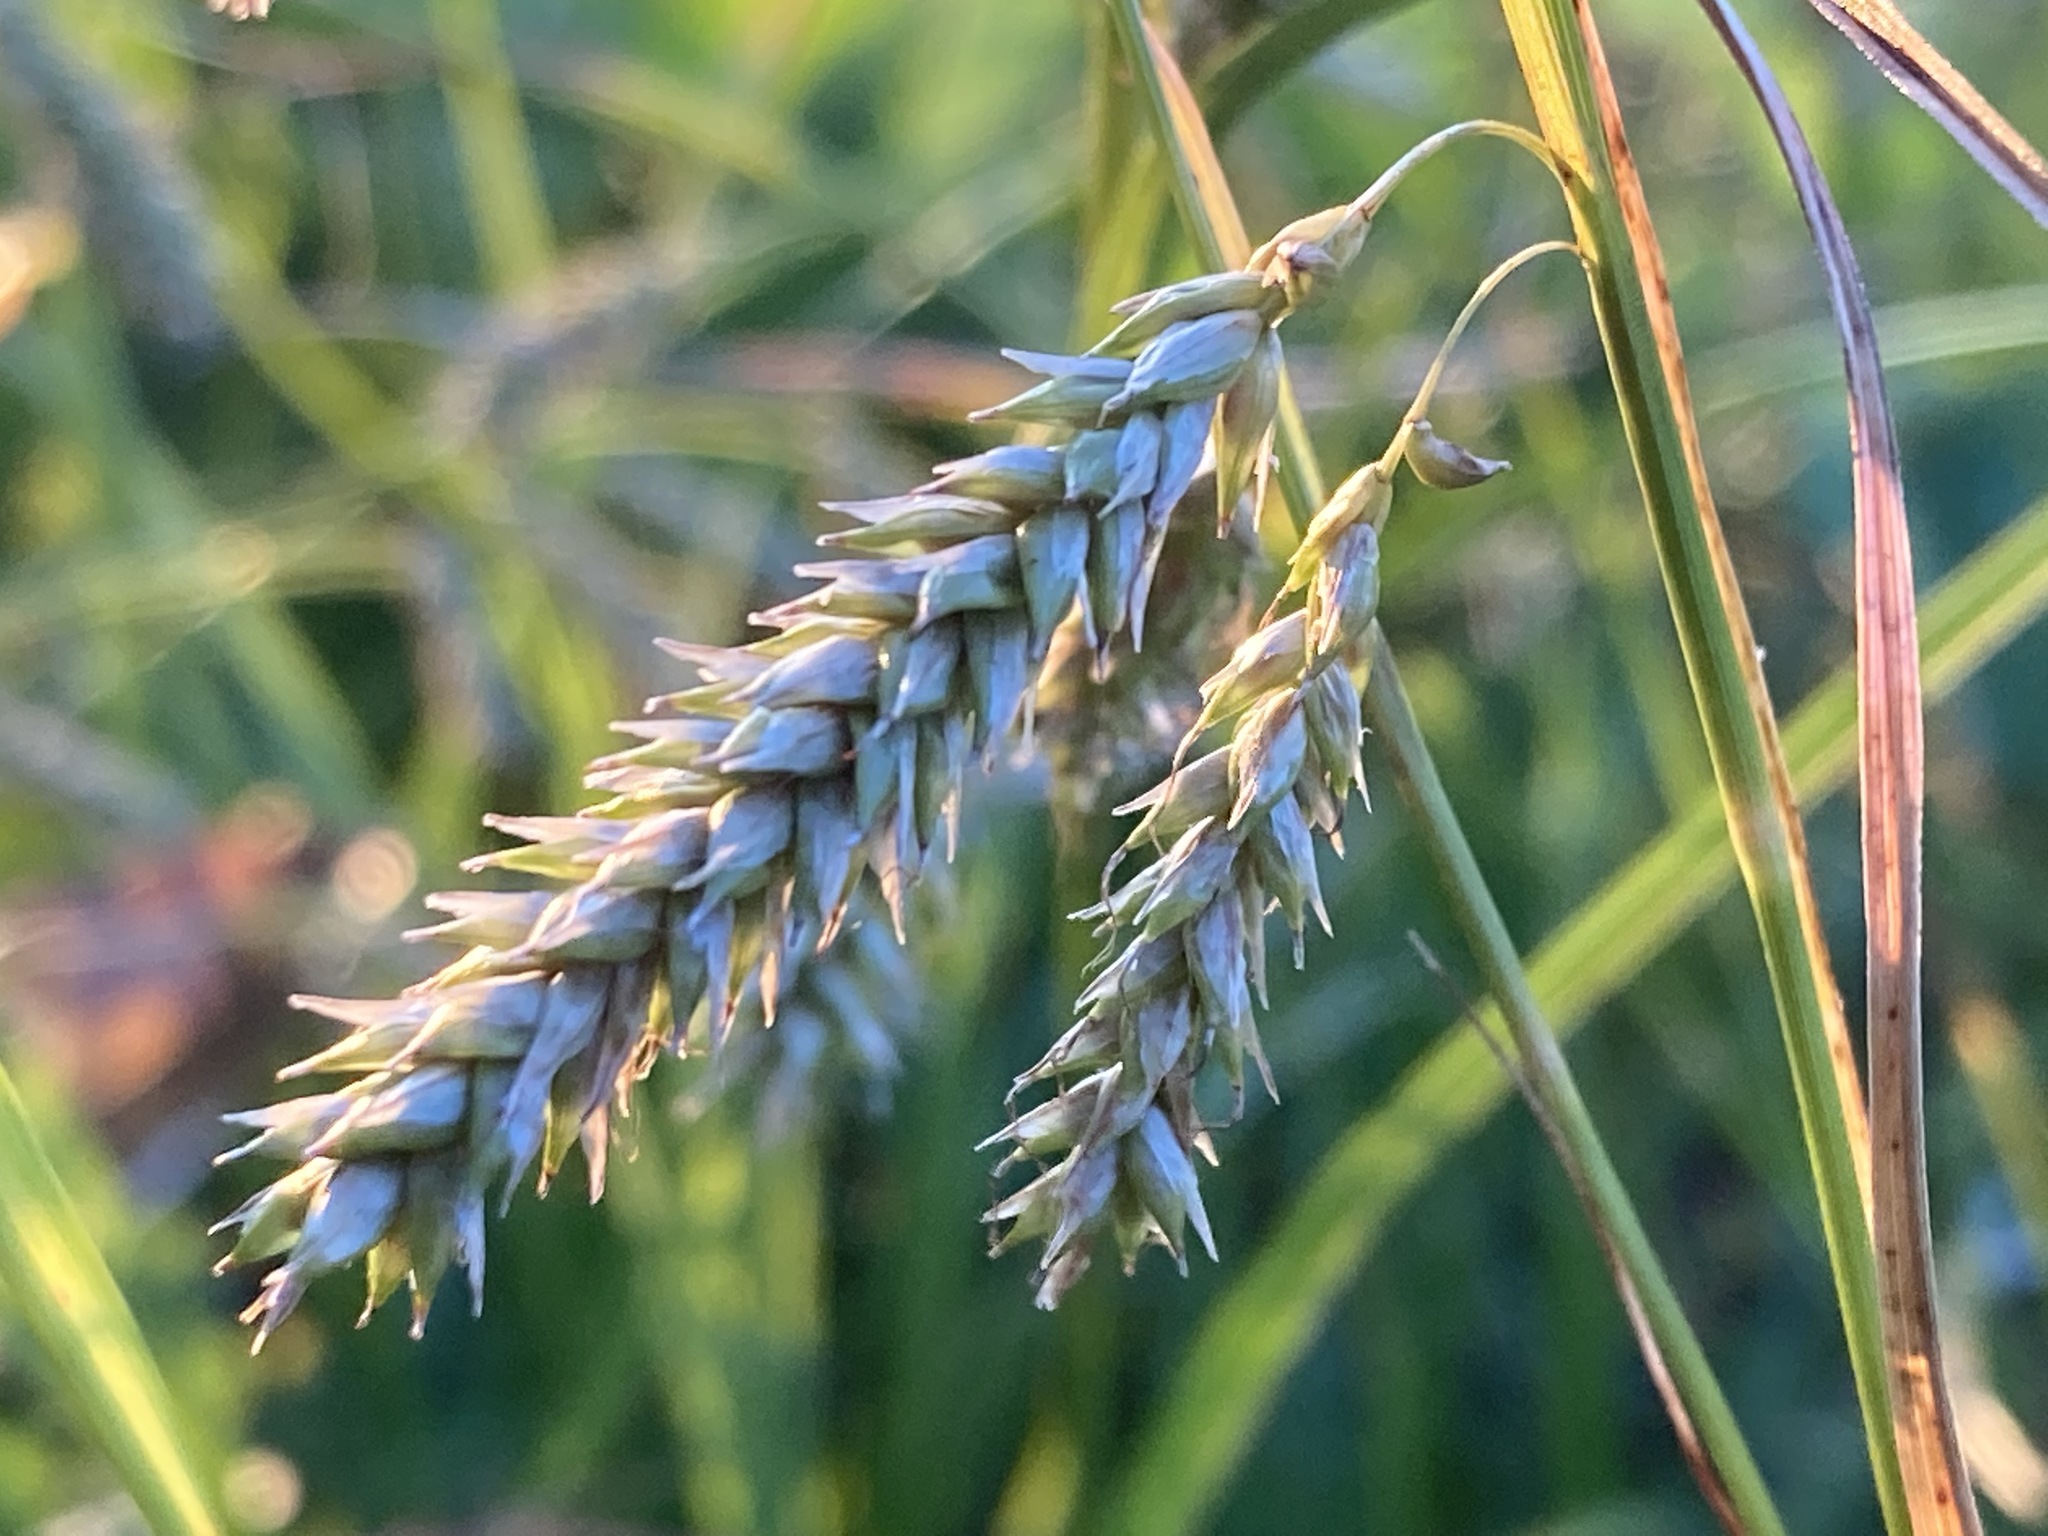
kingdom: Plantae
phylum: Tracheophyta
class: Liliopsida
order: Poales
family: Cyperaceae
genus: Carex
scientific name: Carex cherokeensis
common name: Cherokee sedge
